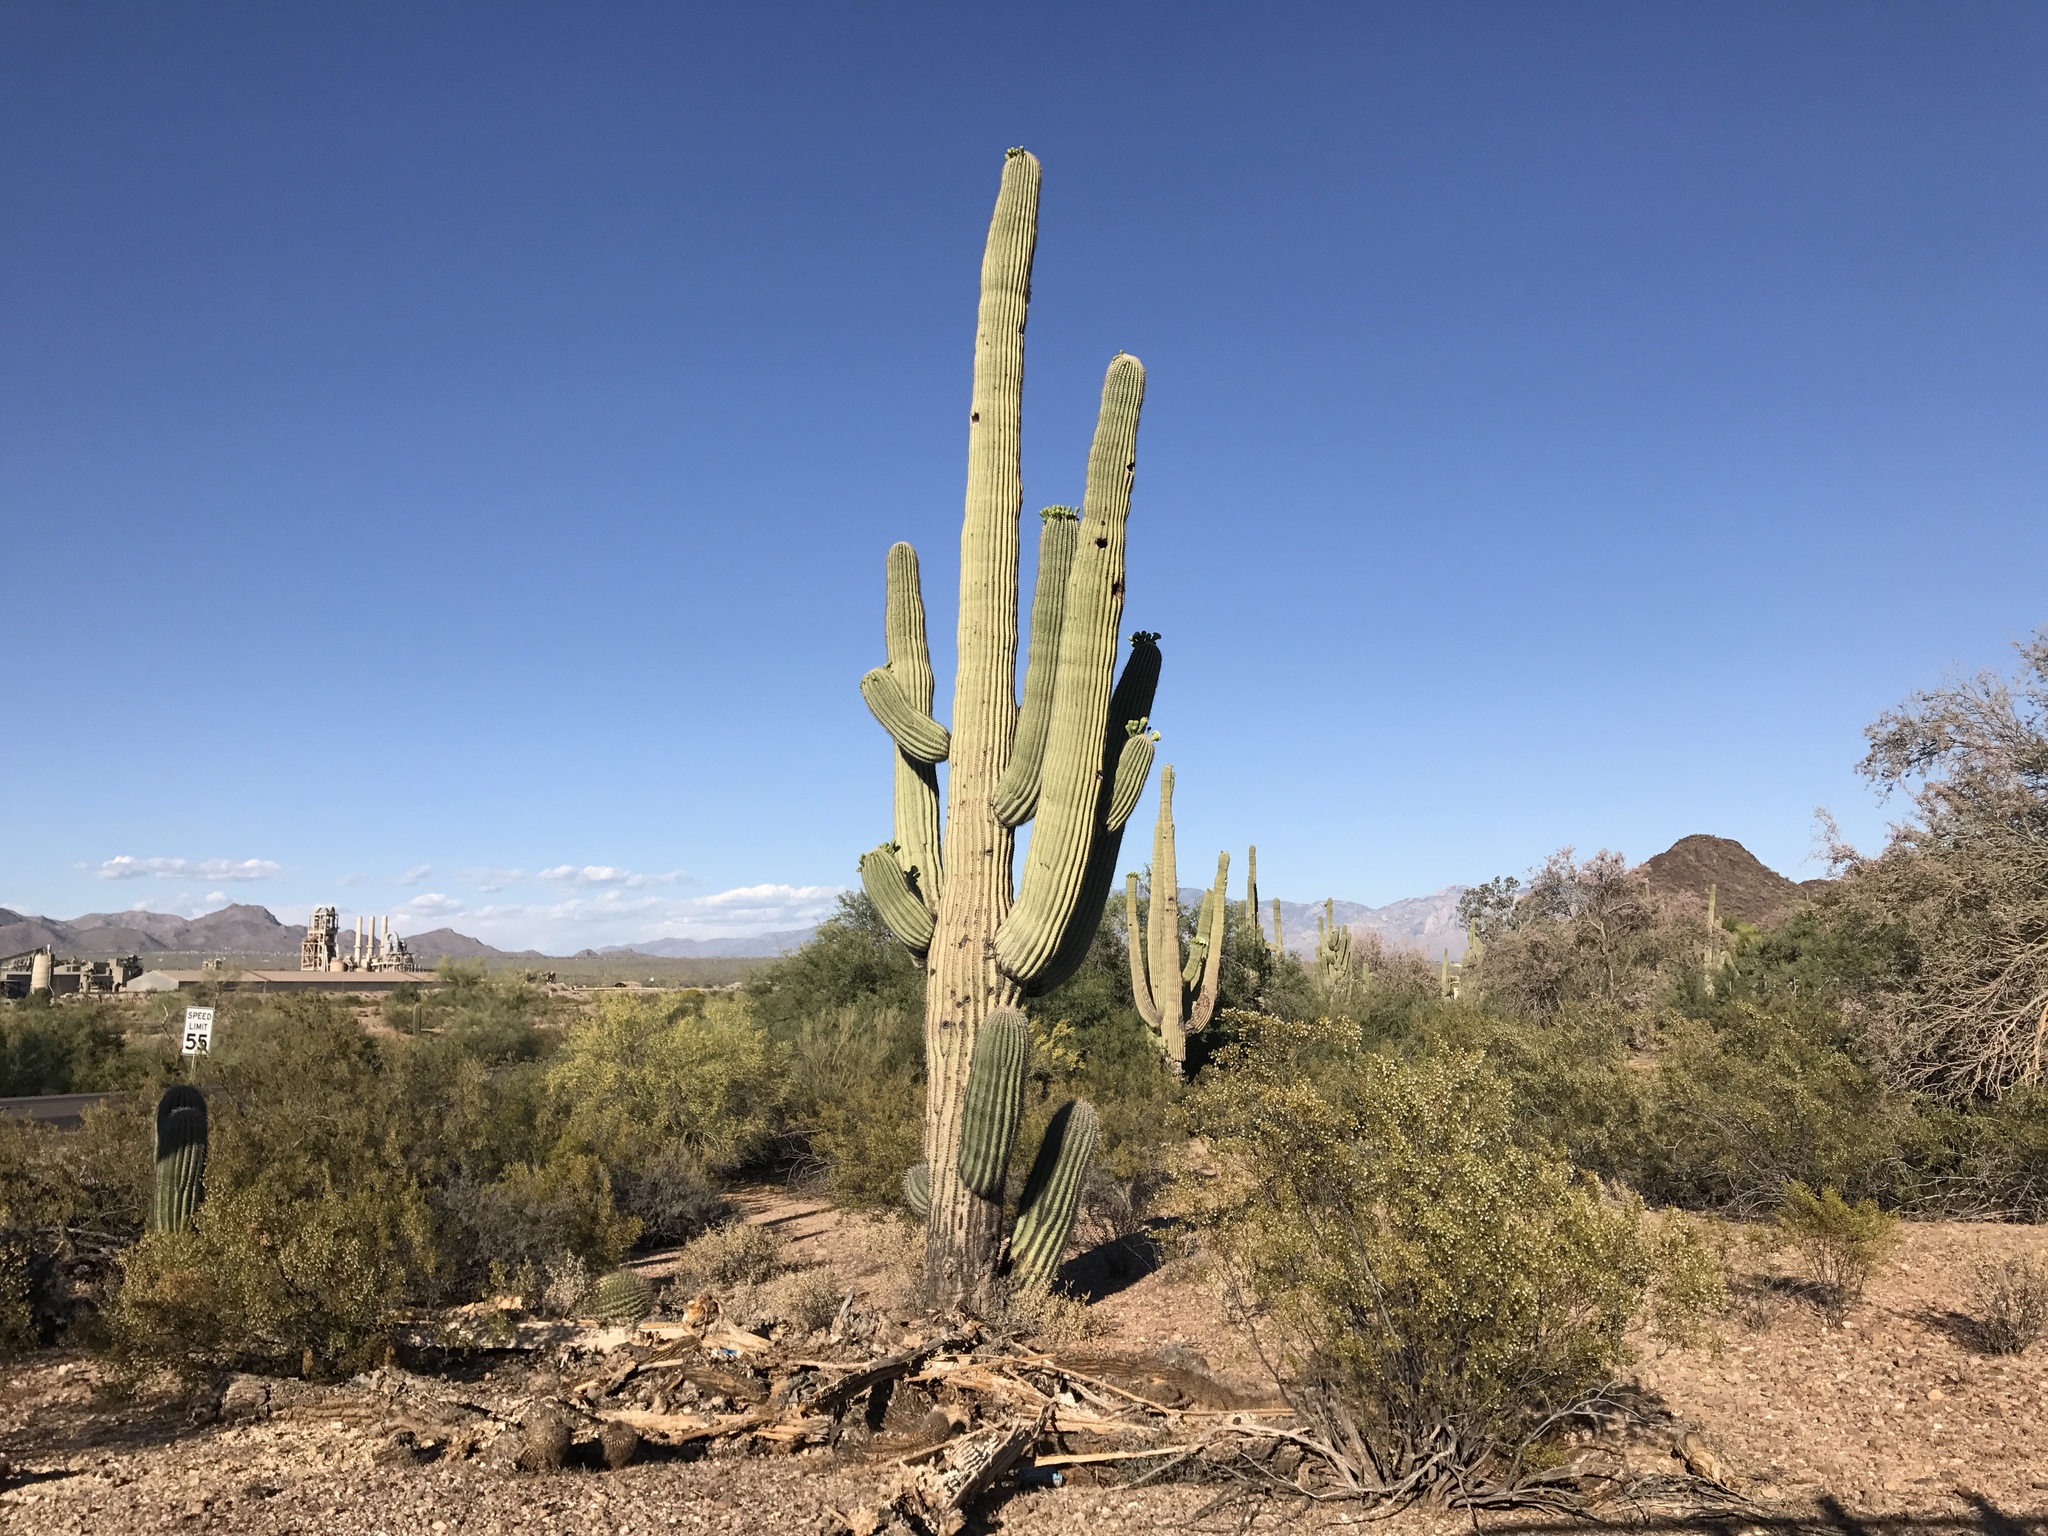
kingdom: Plantae
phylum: Tracheophyta
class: Magnoliopsida
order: Caryophyllales
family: Cactaceae
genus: Carnegiea
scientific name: Carnegiea gigantea
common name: Saguaro
